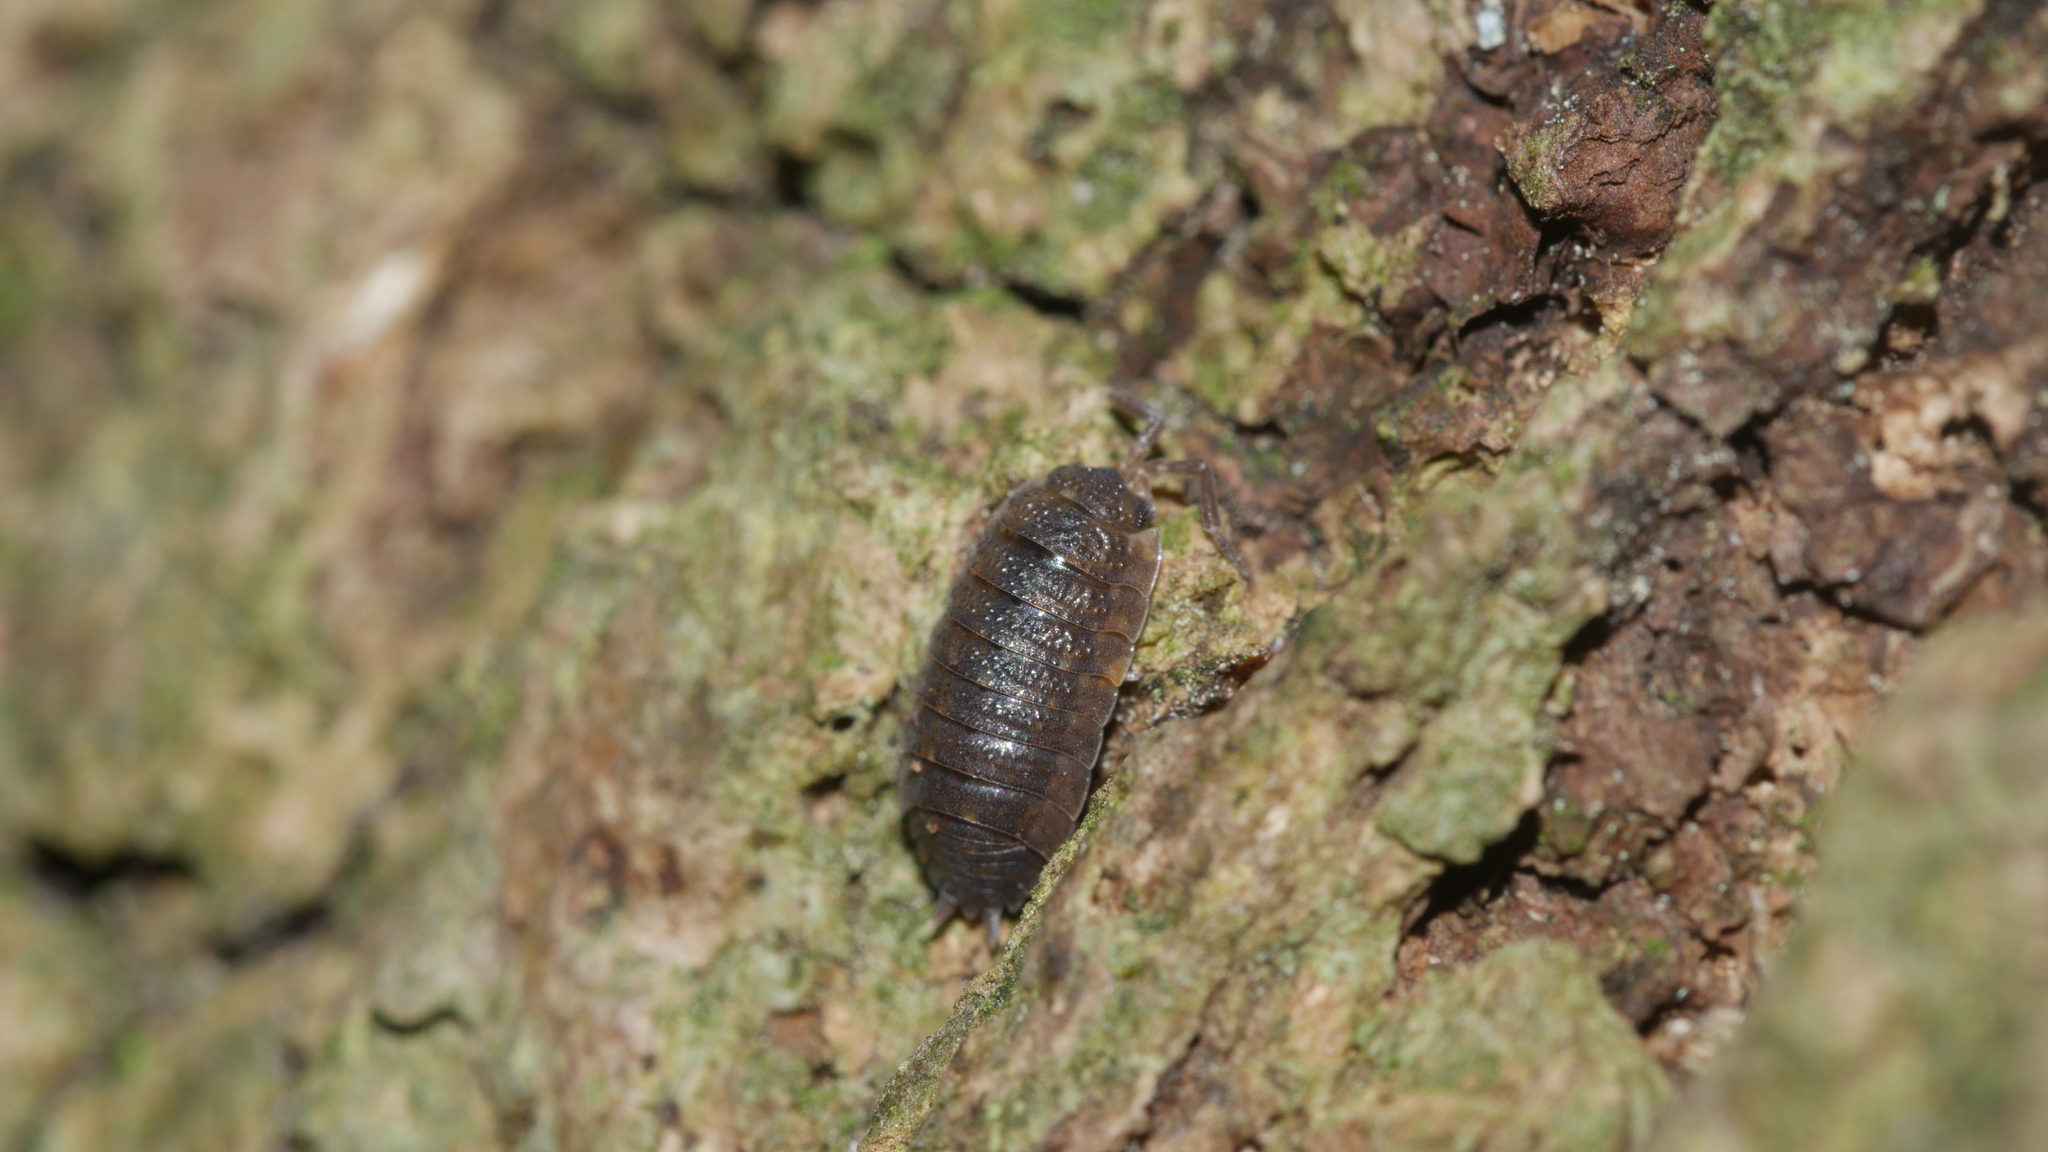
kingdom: Animalia
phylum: Arthropoda
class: Malacostraca
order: Isopoda
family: Porcellionidae
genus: Porcellio
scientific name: Porcellio scaber
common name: Common rough woodlouse
